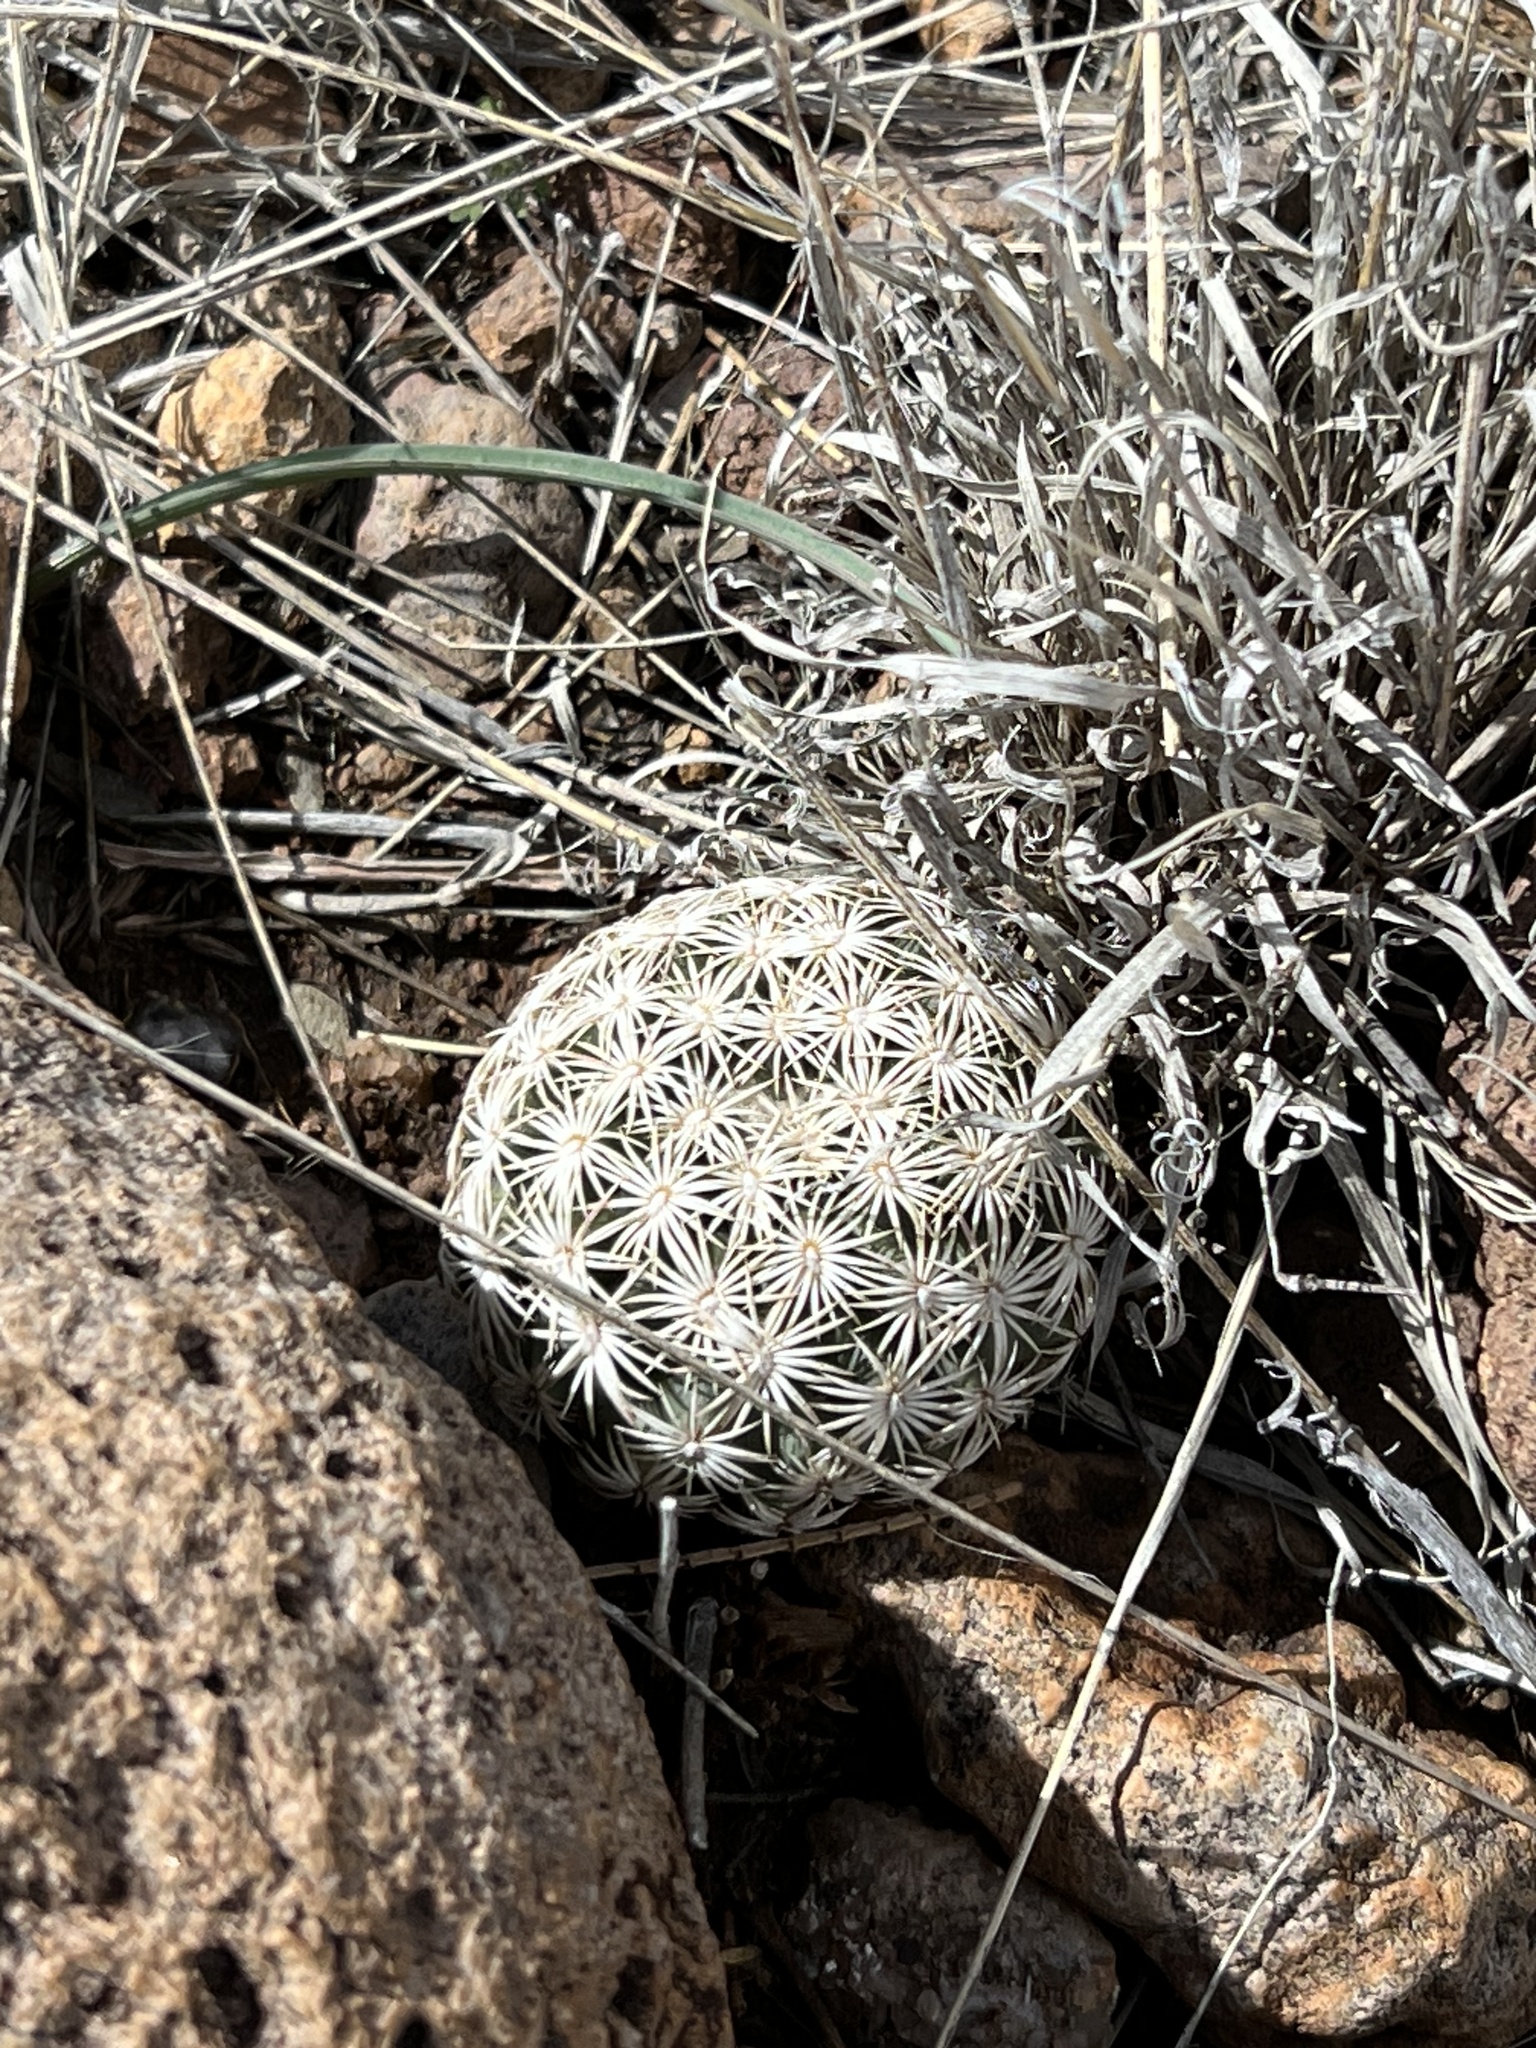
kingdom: Plantae
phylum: Tracheophyta
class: Magnoliopsida
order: Caryophyllales
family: Cactaceae
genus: Sclerocactus
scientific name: Sclerocactus johnsonii
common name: Eight-spine fishhook cactus
